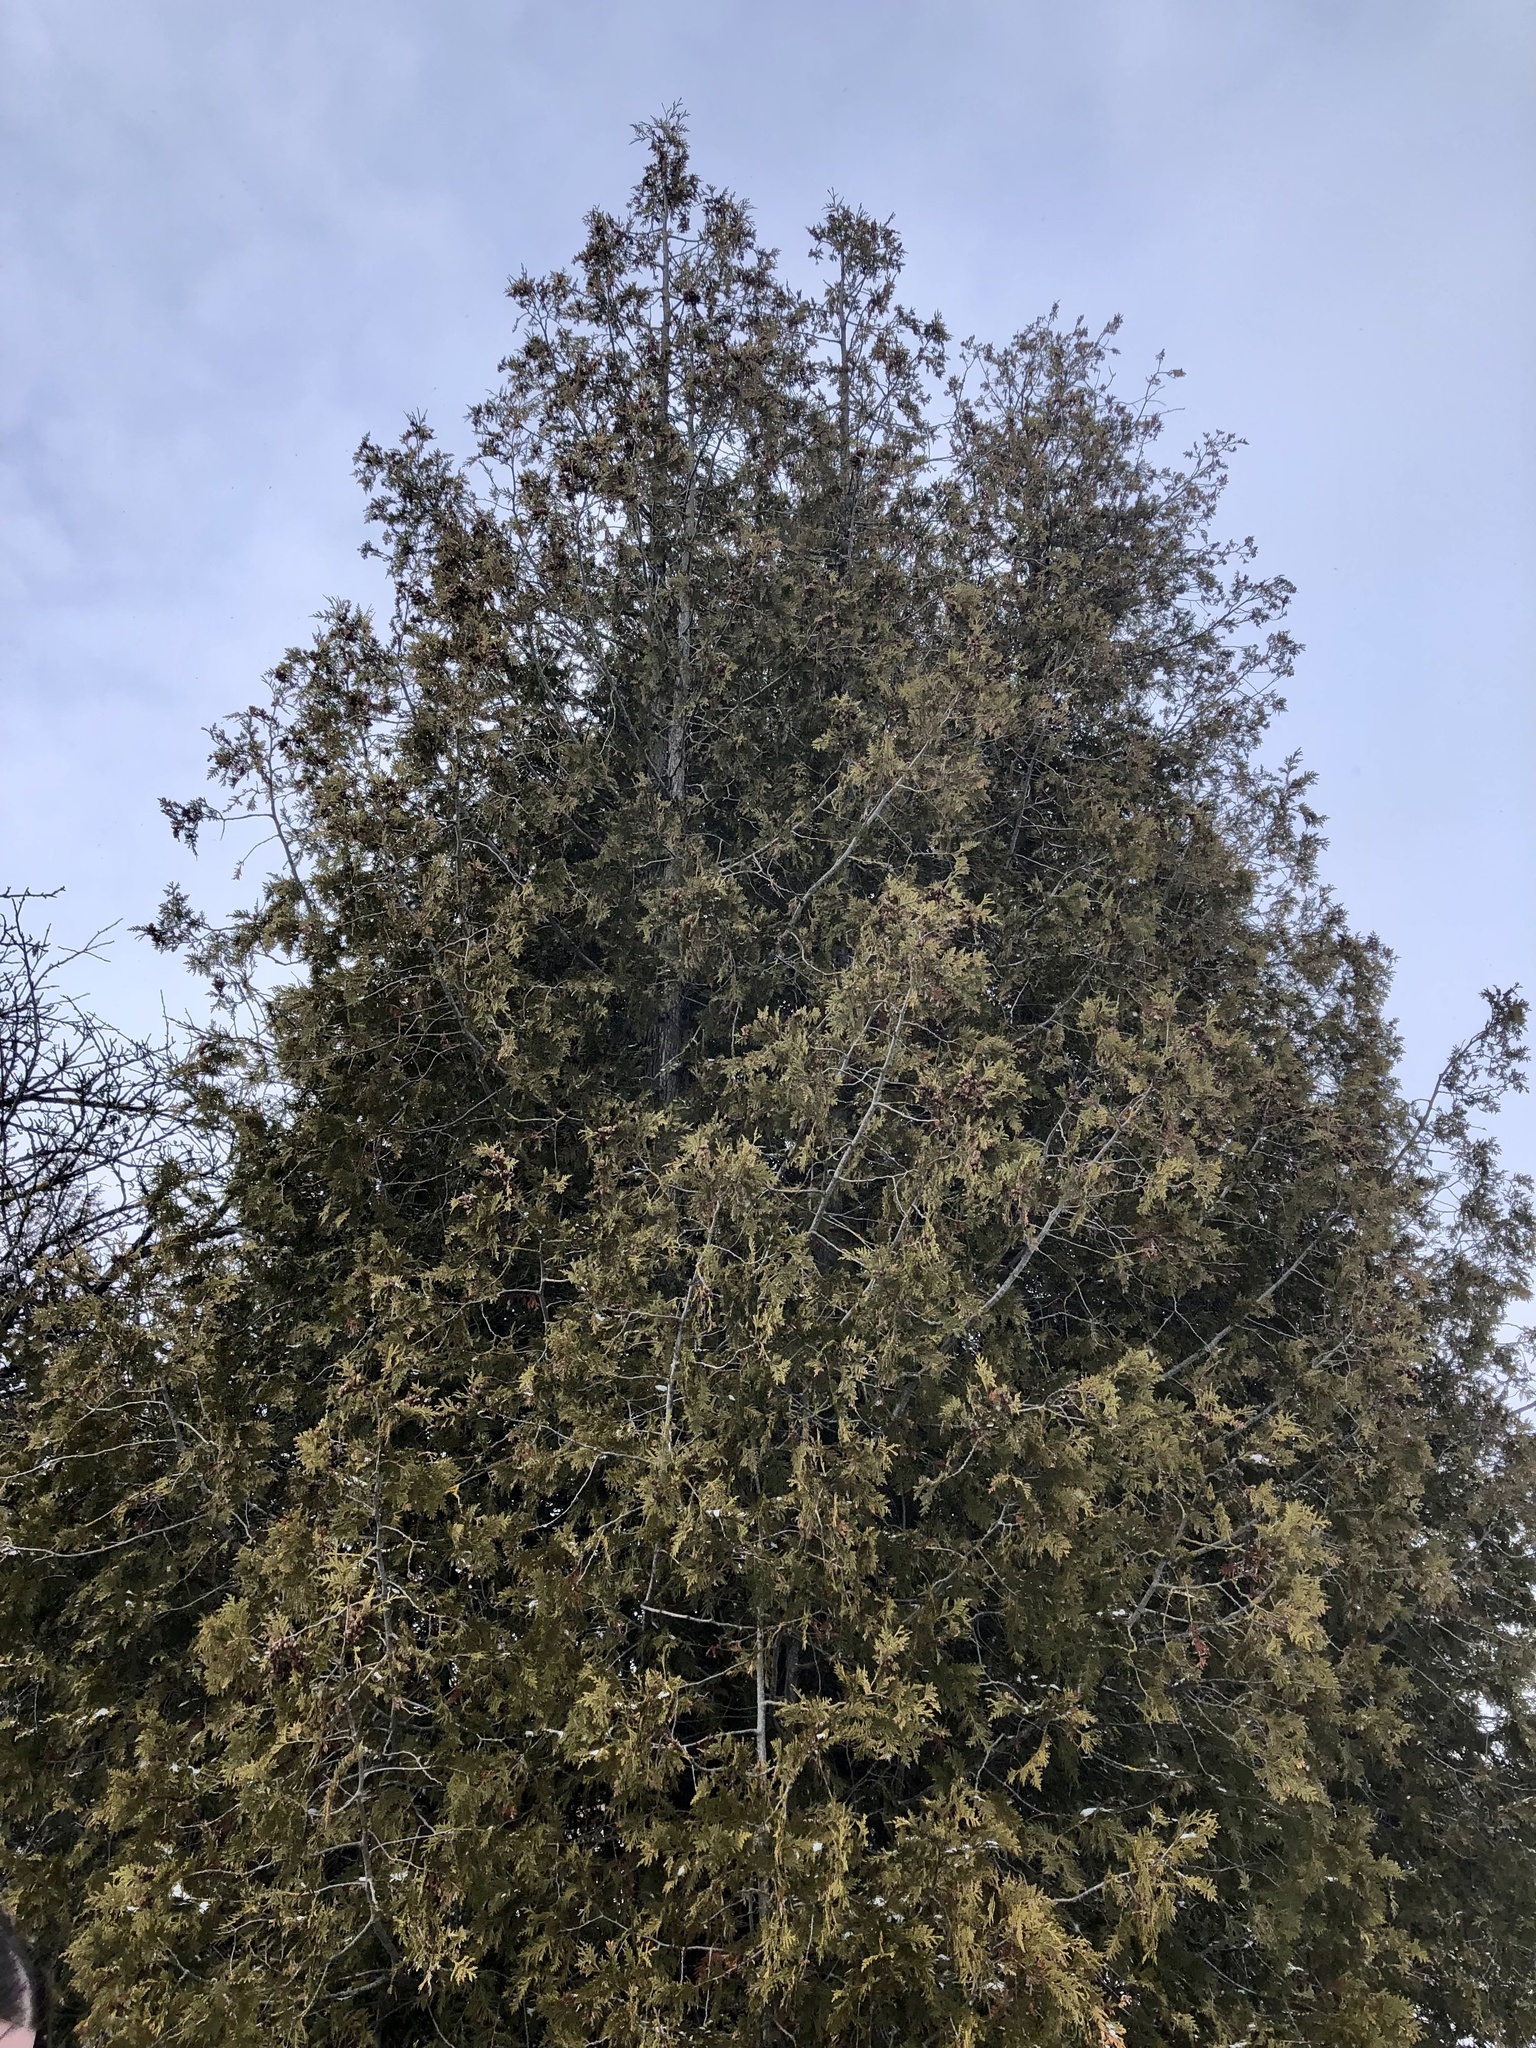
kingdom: Plantae
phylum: Tracheophyta
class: Pinopsida
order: Pinales
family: Cupressaceae
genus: Thuja
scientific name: Thuja occidentalis
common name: Northern white-cedar
